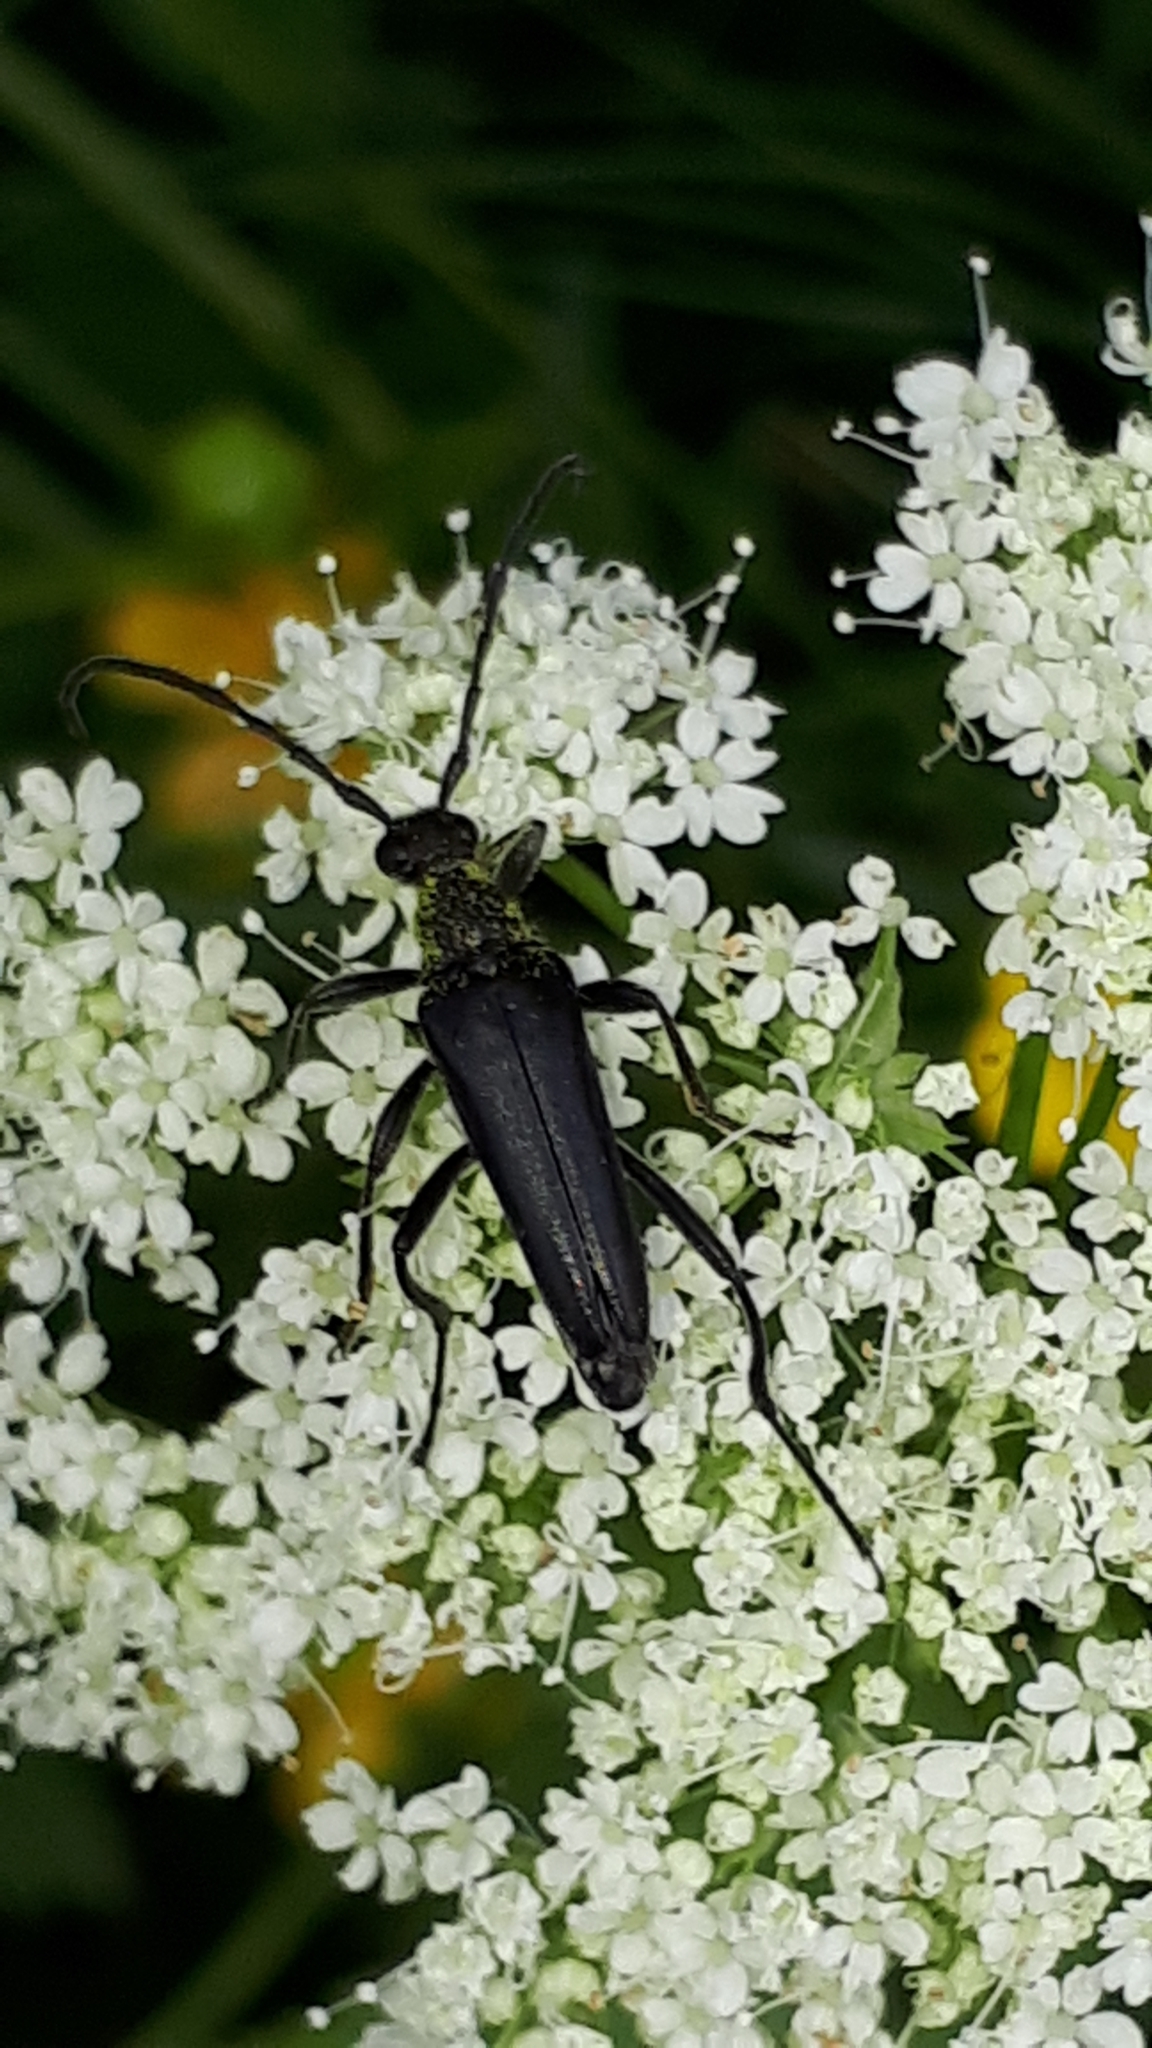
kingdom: Animalia
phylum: Arthropoda
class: Insecta
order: Coleoptera
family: Cerambycidae
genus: Leptura
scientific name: Leptura aethiops
